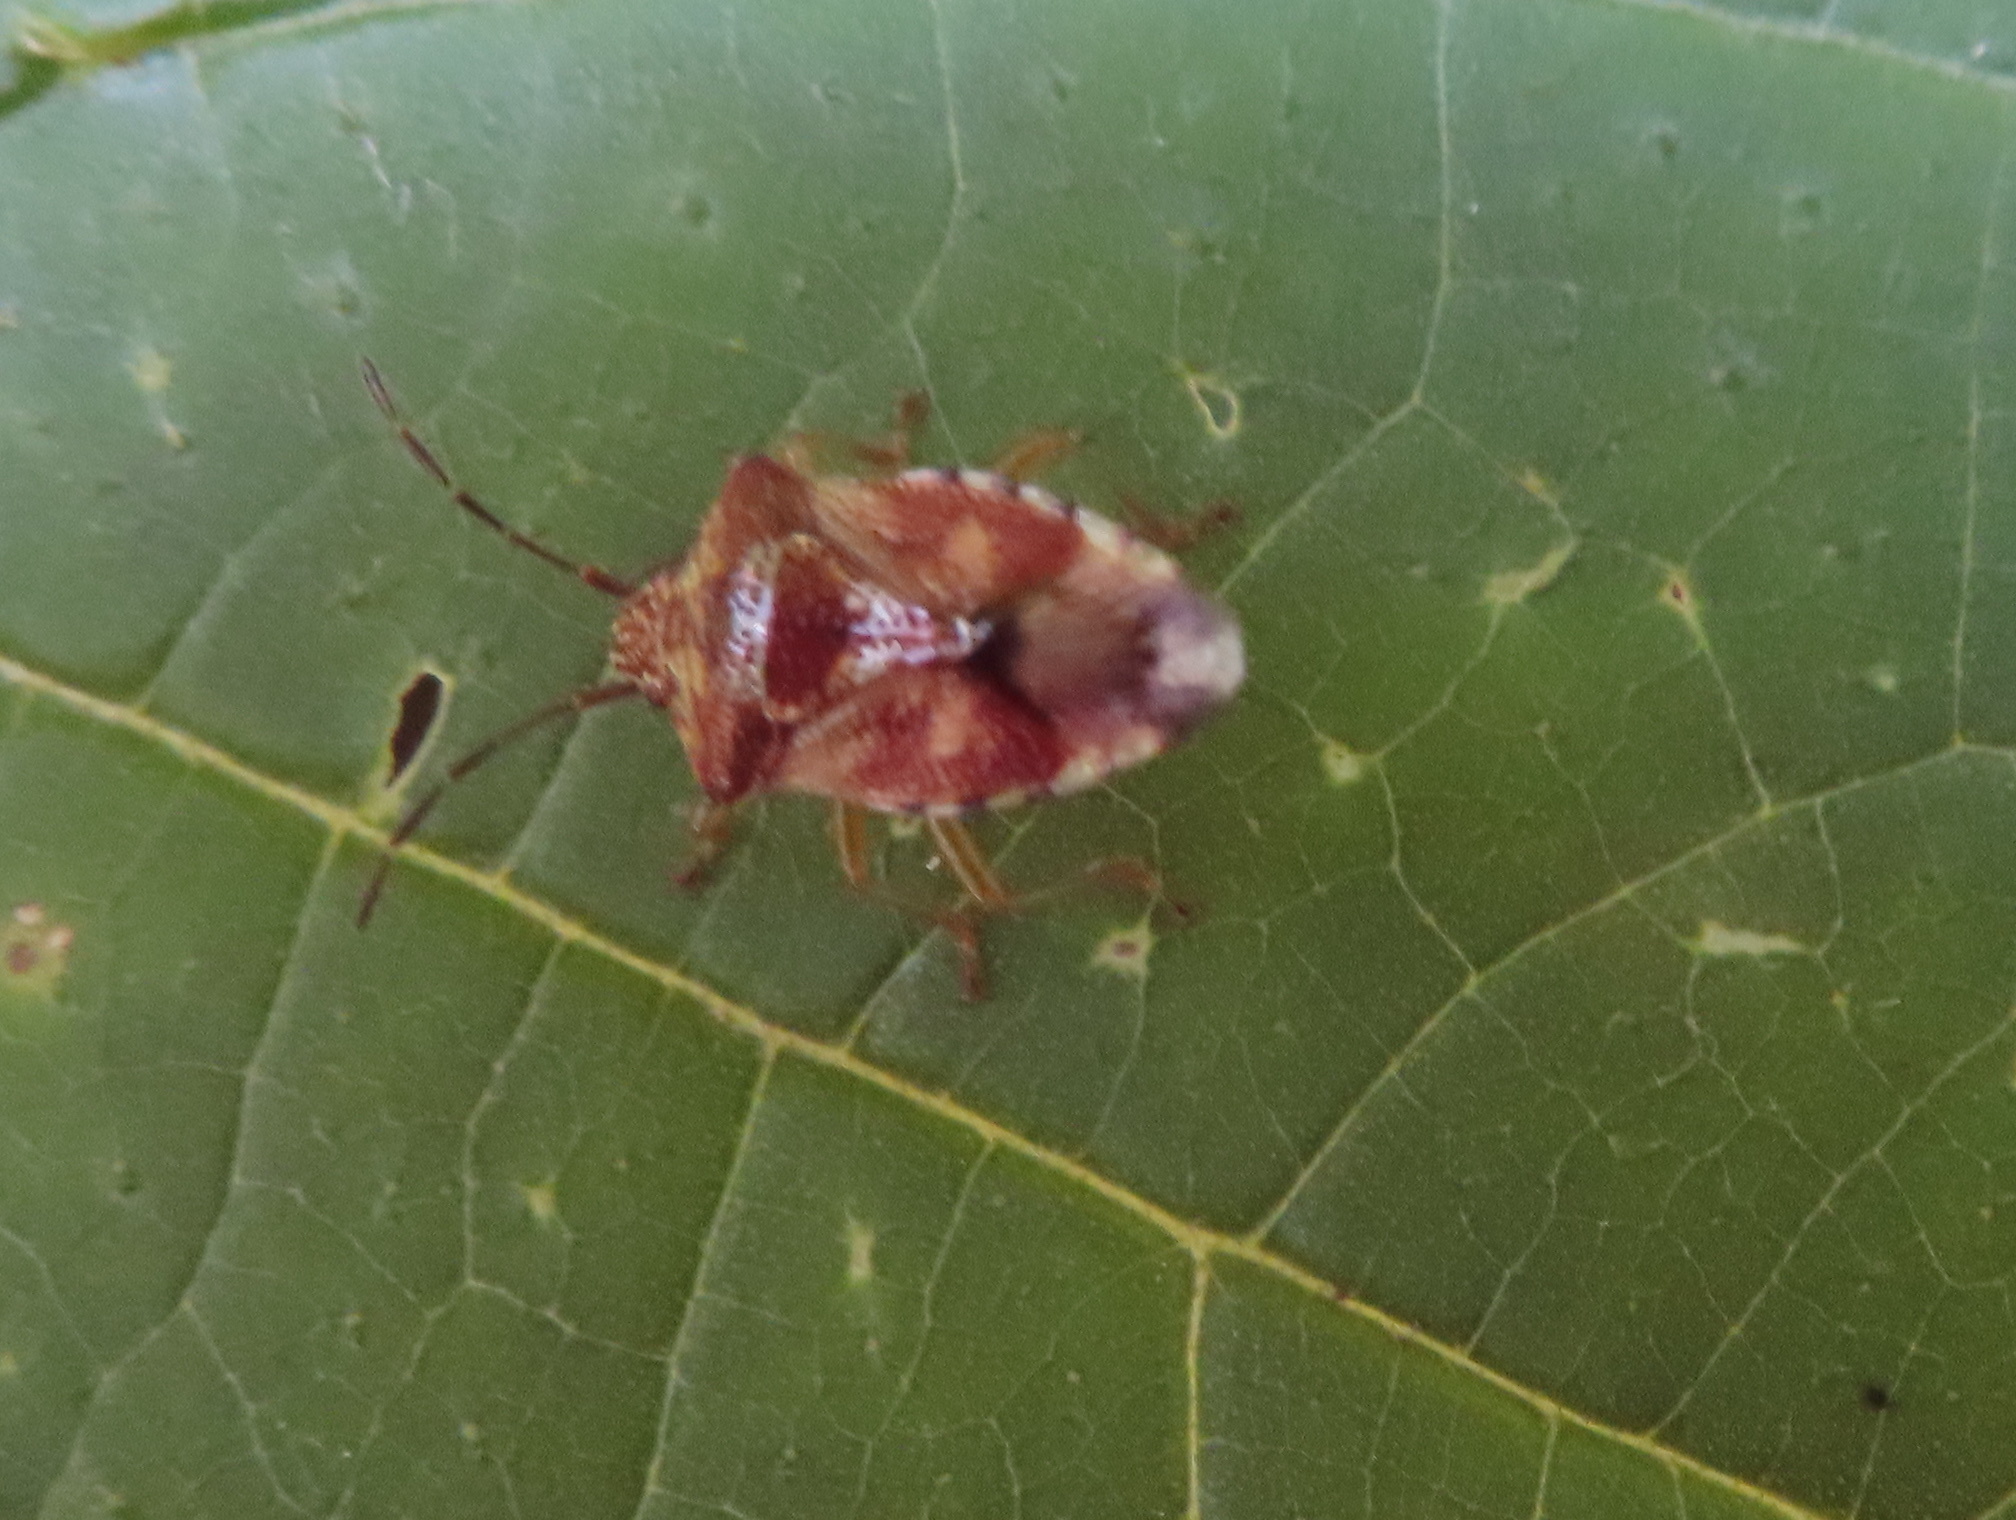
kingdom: Animalia
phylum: Arthropoda
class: Insecta
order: Hemiptera
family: Acanthosomatidae
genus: Elasmucha
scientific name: Elasmucha lateralis
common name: Shield bug
